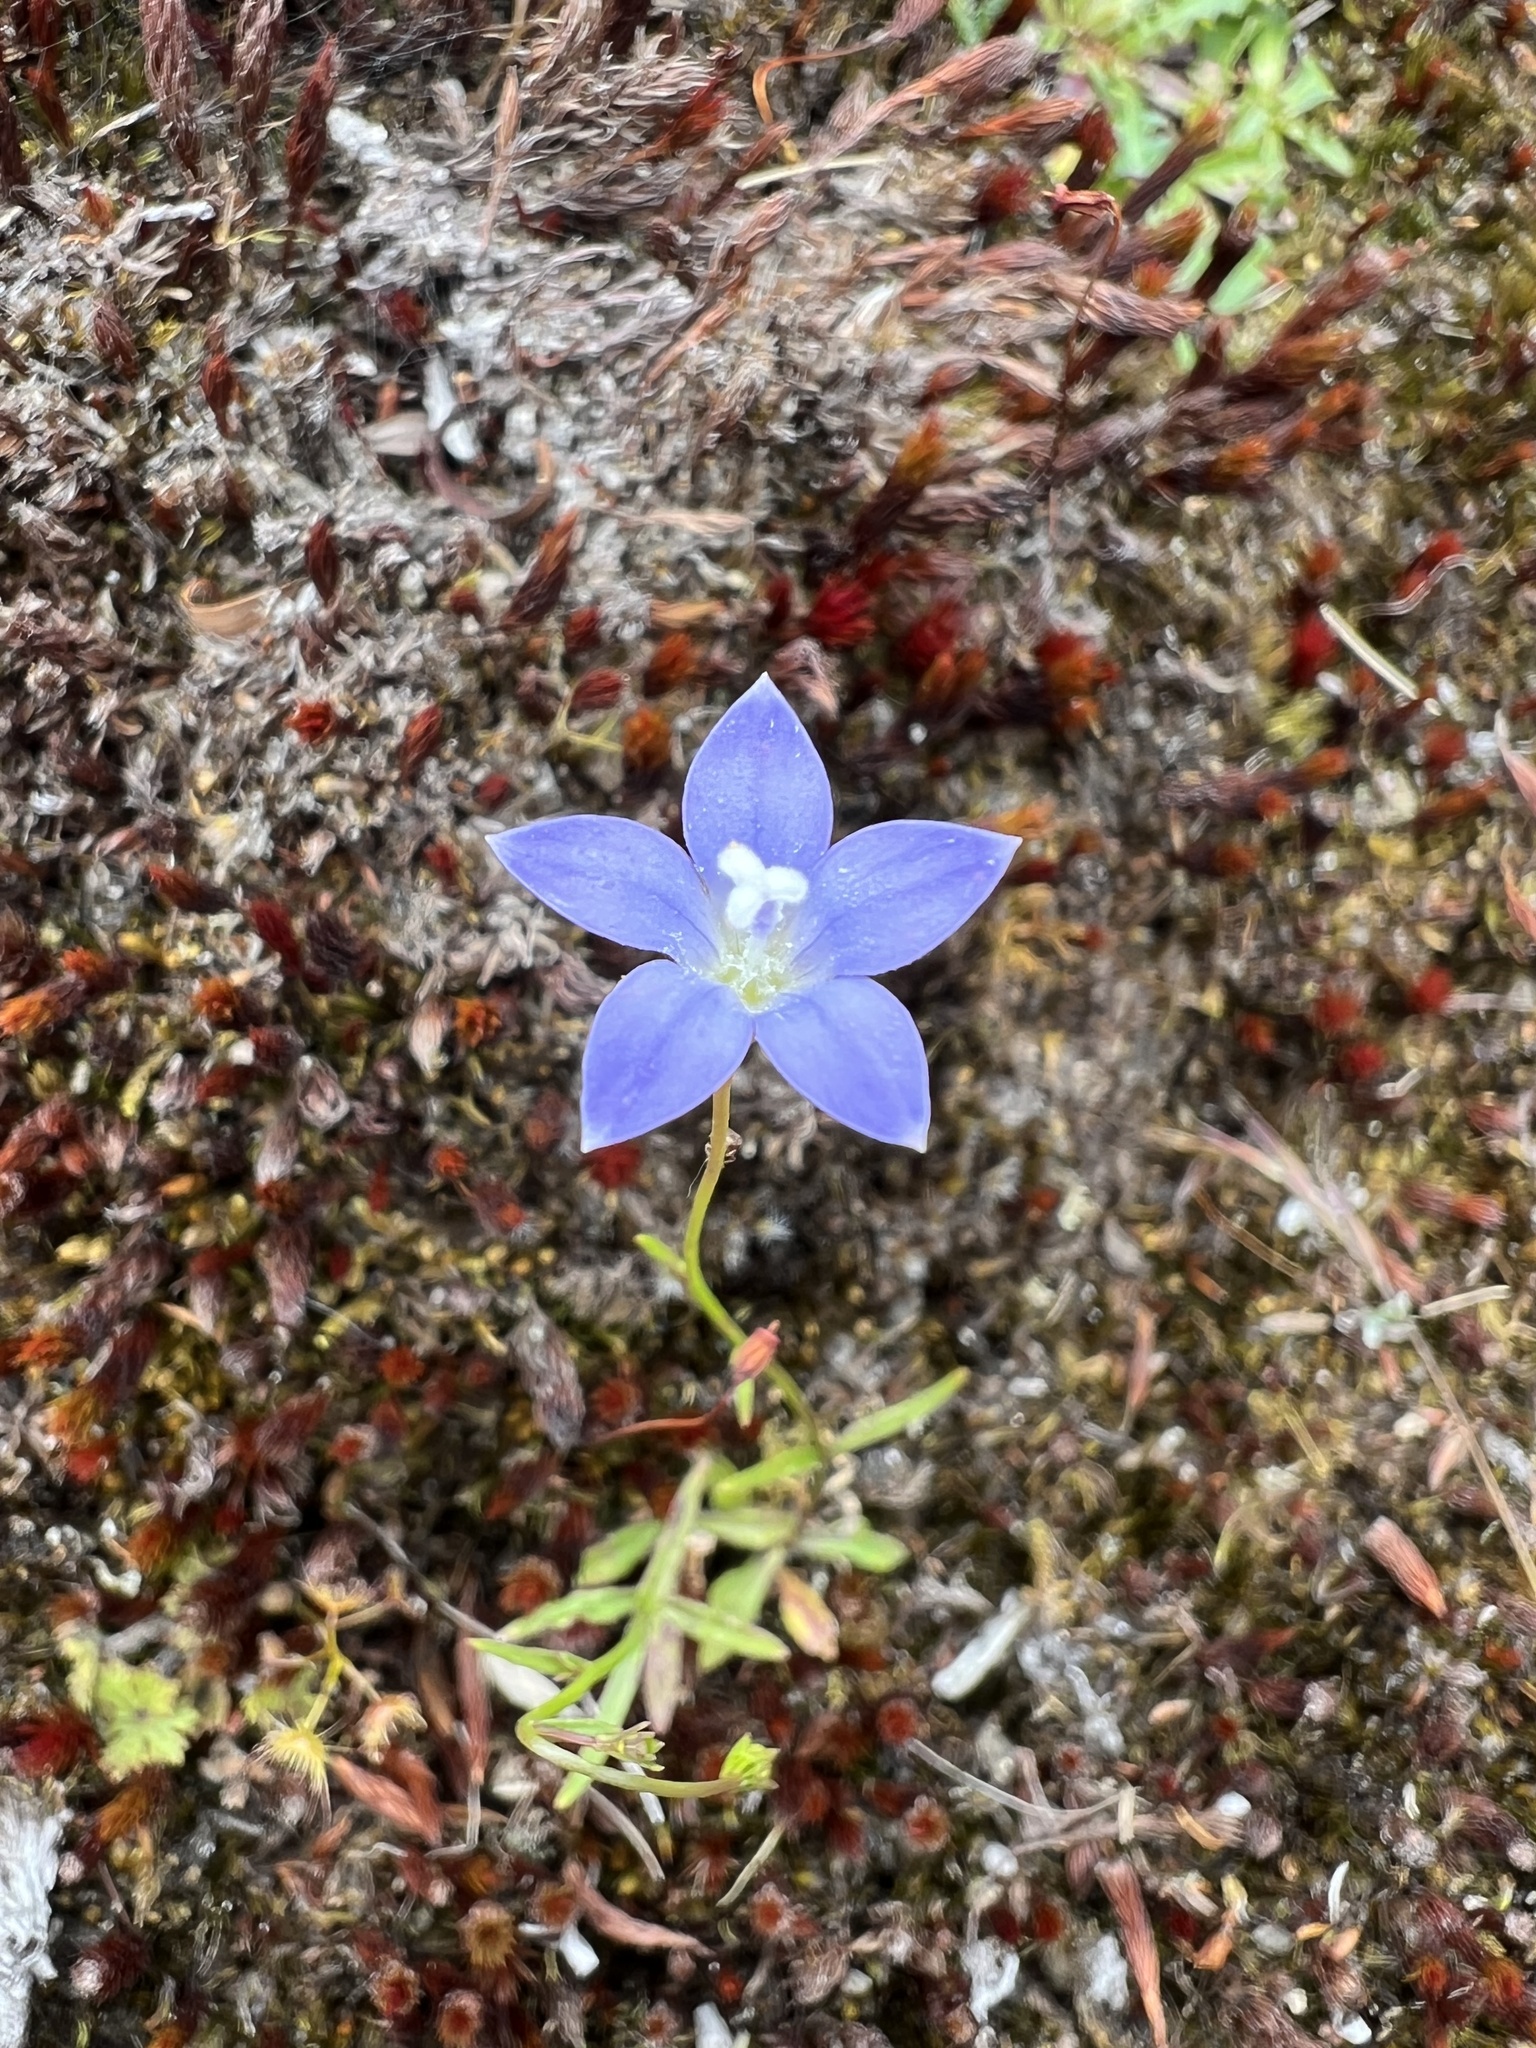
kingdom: Plantae
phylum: Tracheophyta
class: Magnoliopsida
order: Asterales
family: Campanulaceae
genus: Wahlenbergia
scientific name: Wahlenbergia violacea
